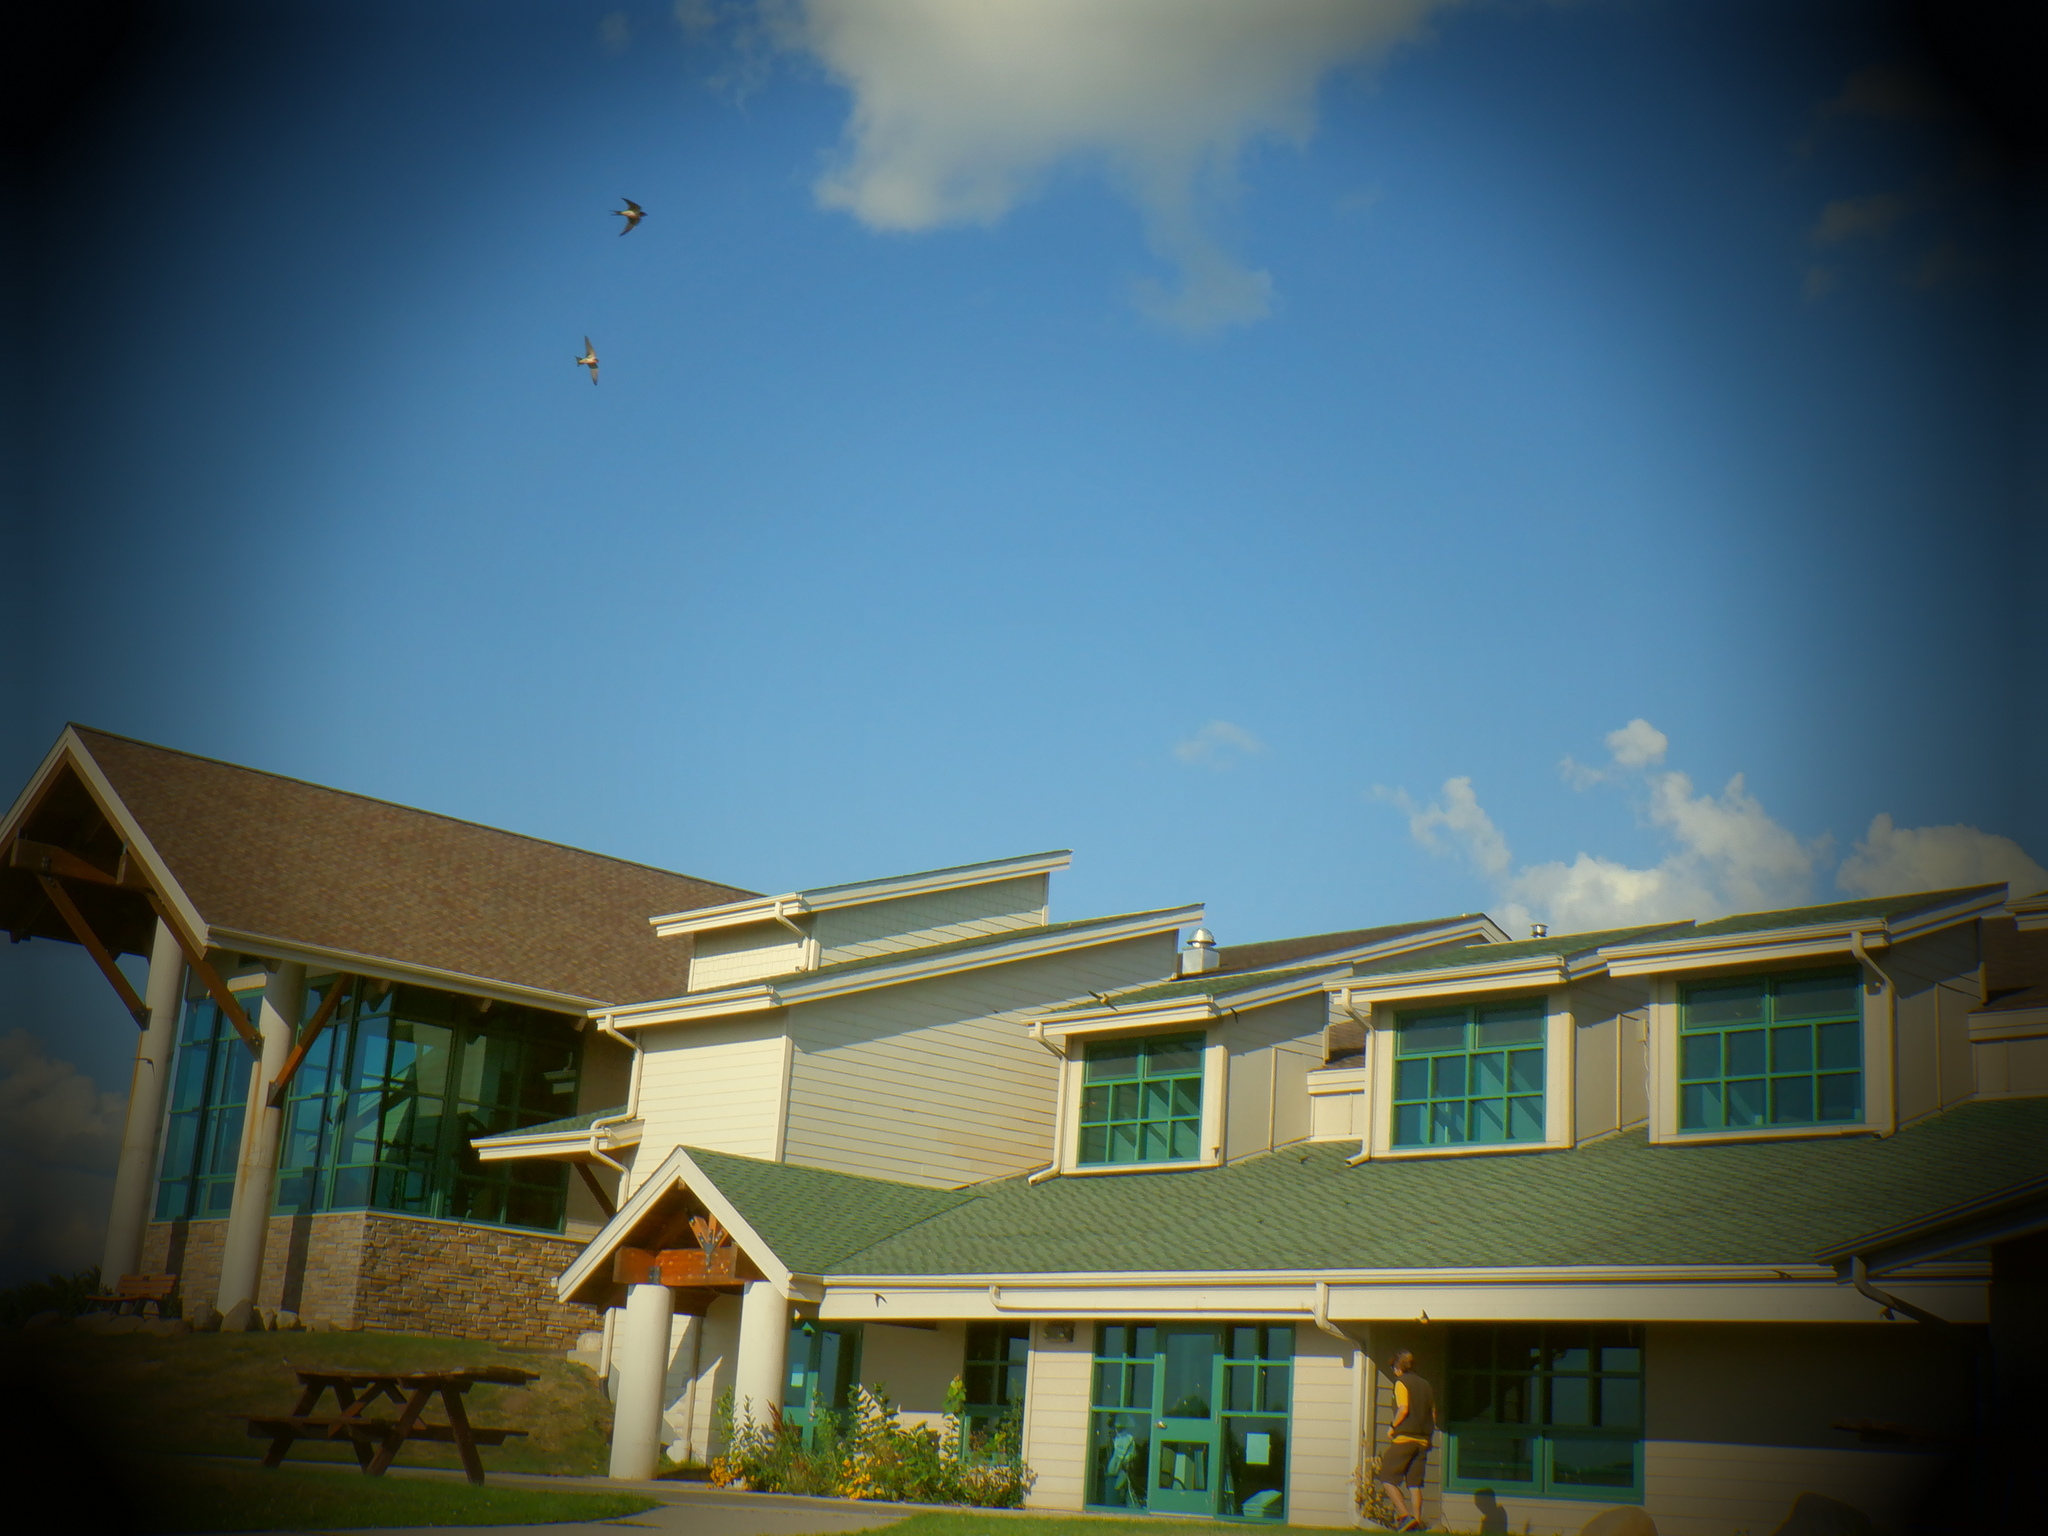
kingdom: Animalia
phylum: Chordata
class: Aves
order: Passeriformes
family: Hirundinidae
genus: Hirundo
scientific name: Hirundo rustica
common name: Barn swallow
